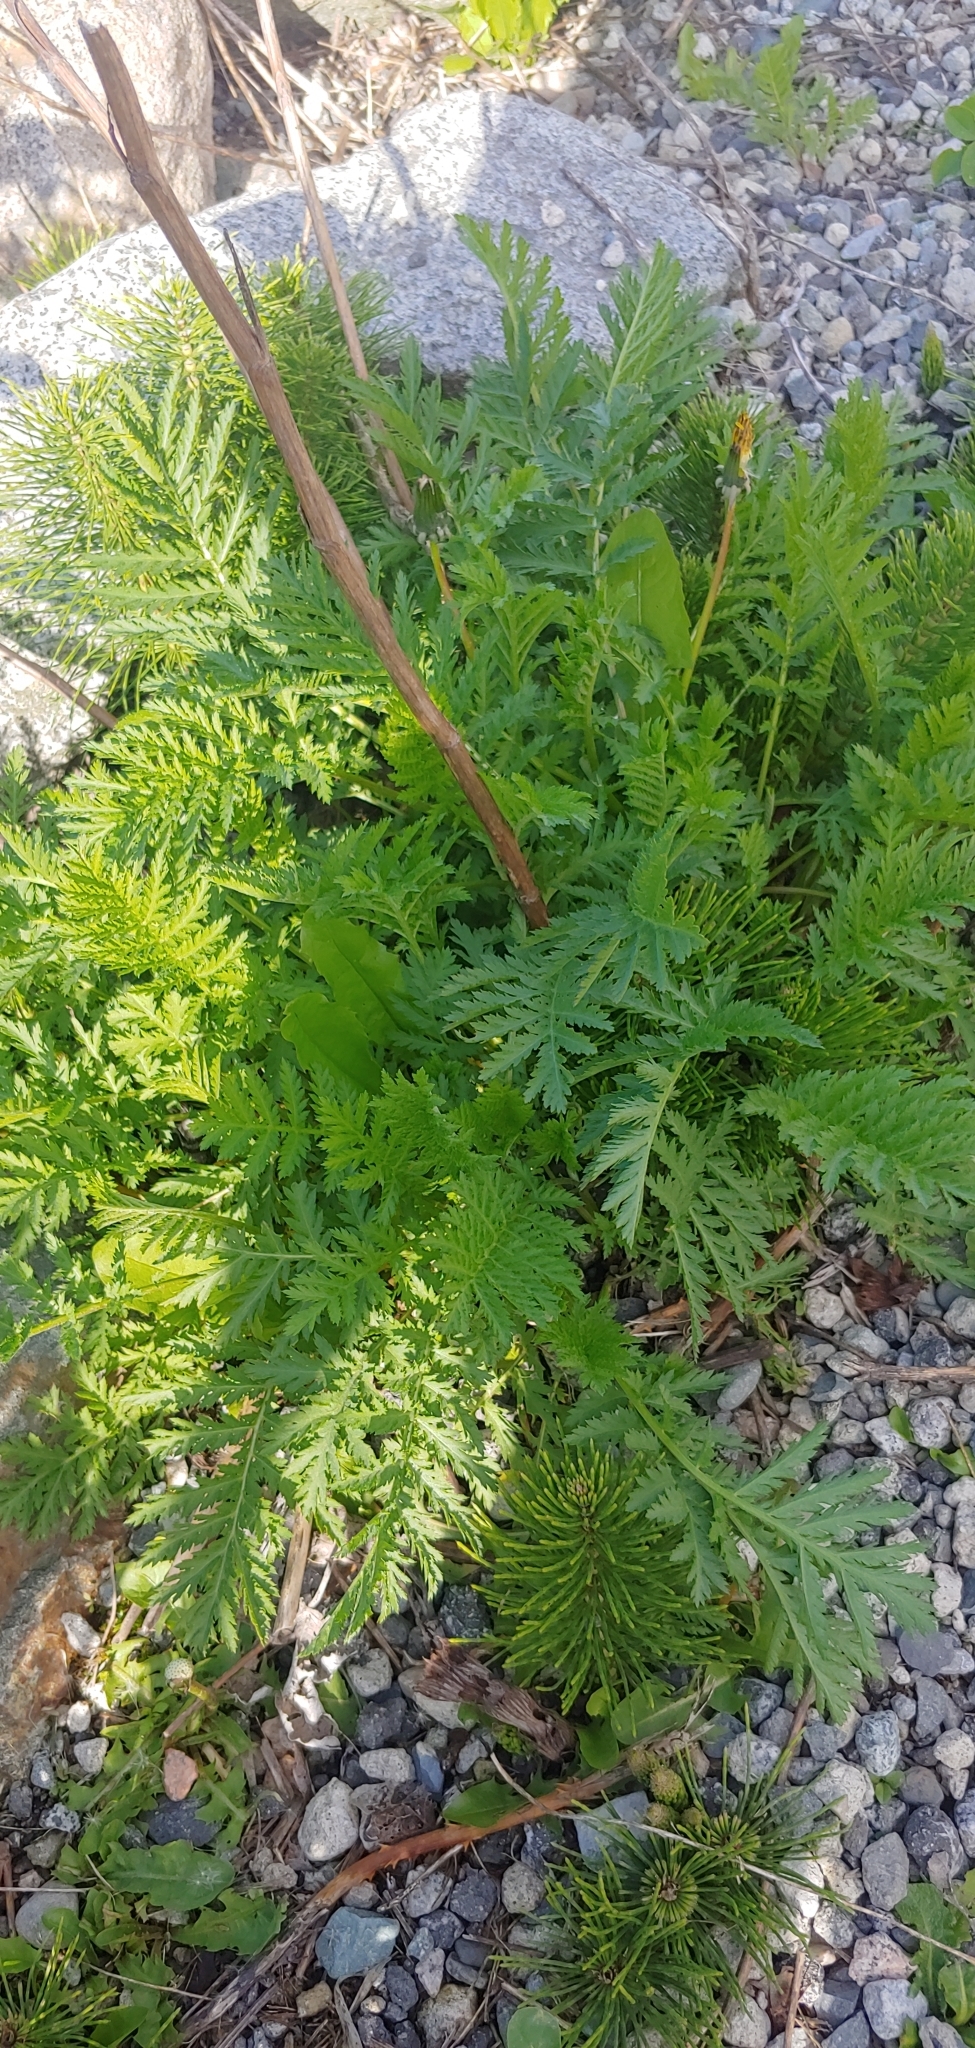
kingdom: Plantae
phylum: Tracheophyta
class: Magnoliopsida
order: Asterales
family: Asteraceae
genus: Tanacetum
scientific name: Tanacetum vulgare
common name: Common tansy
